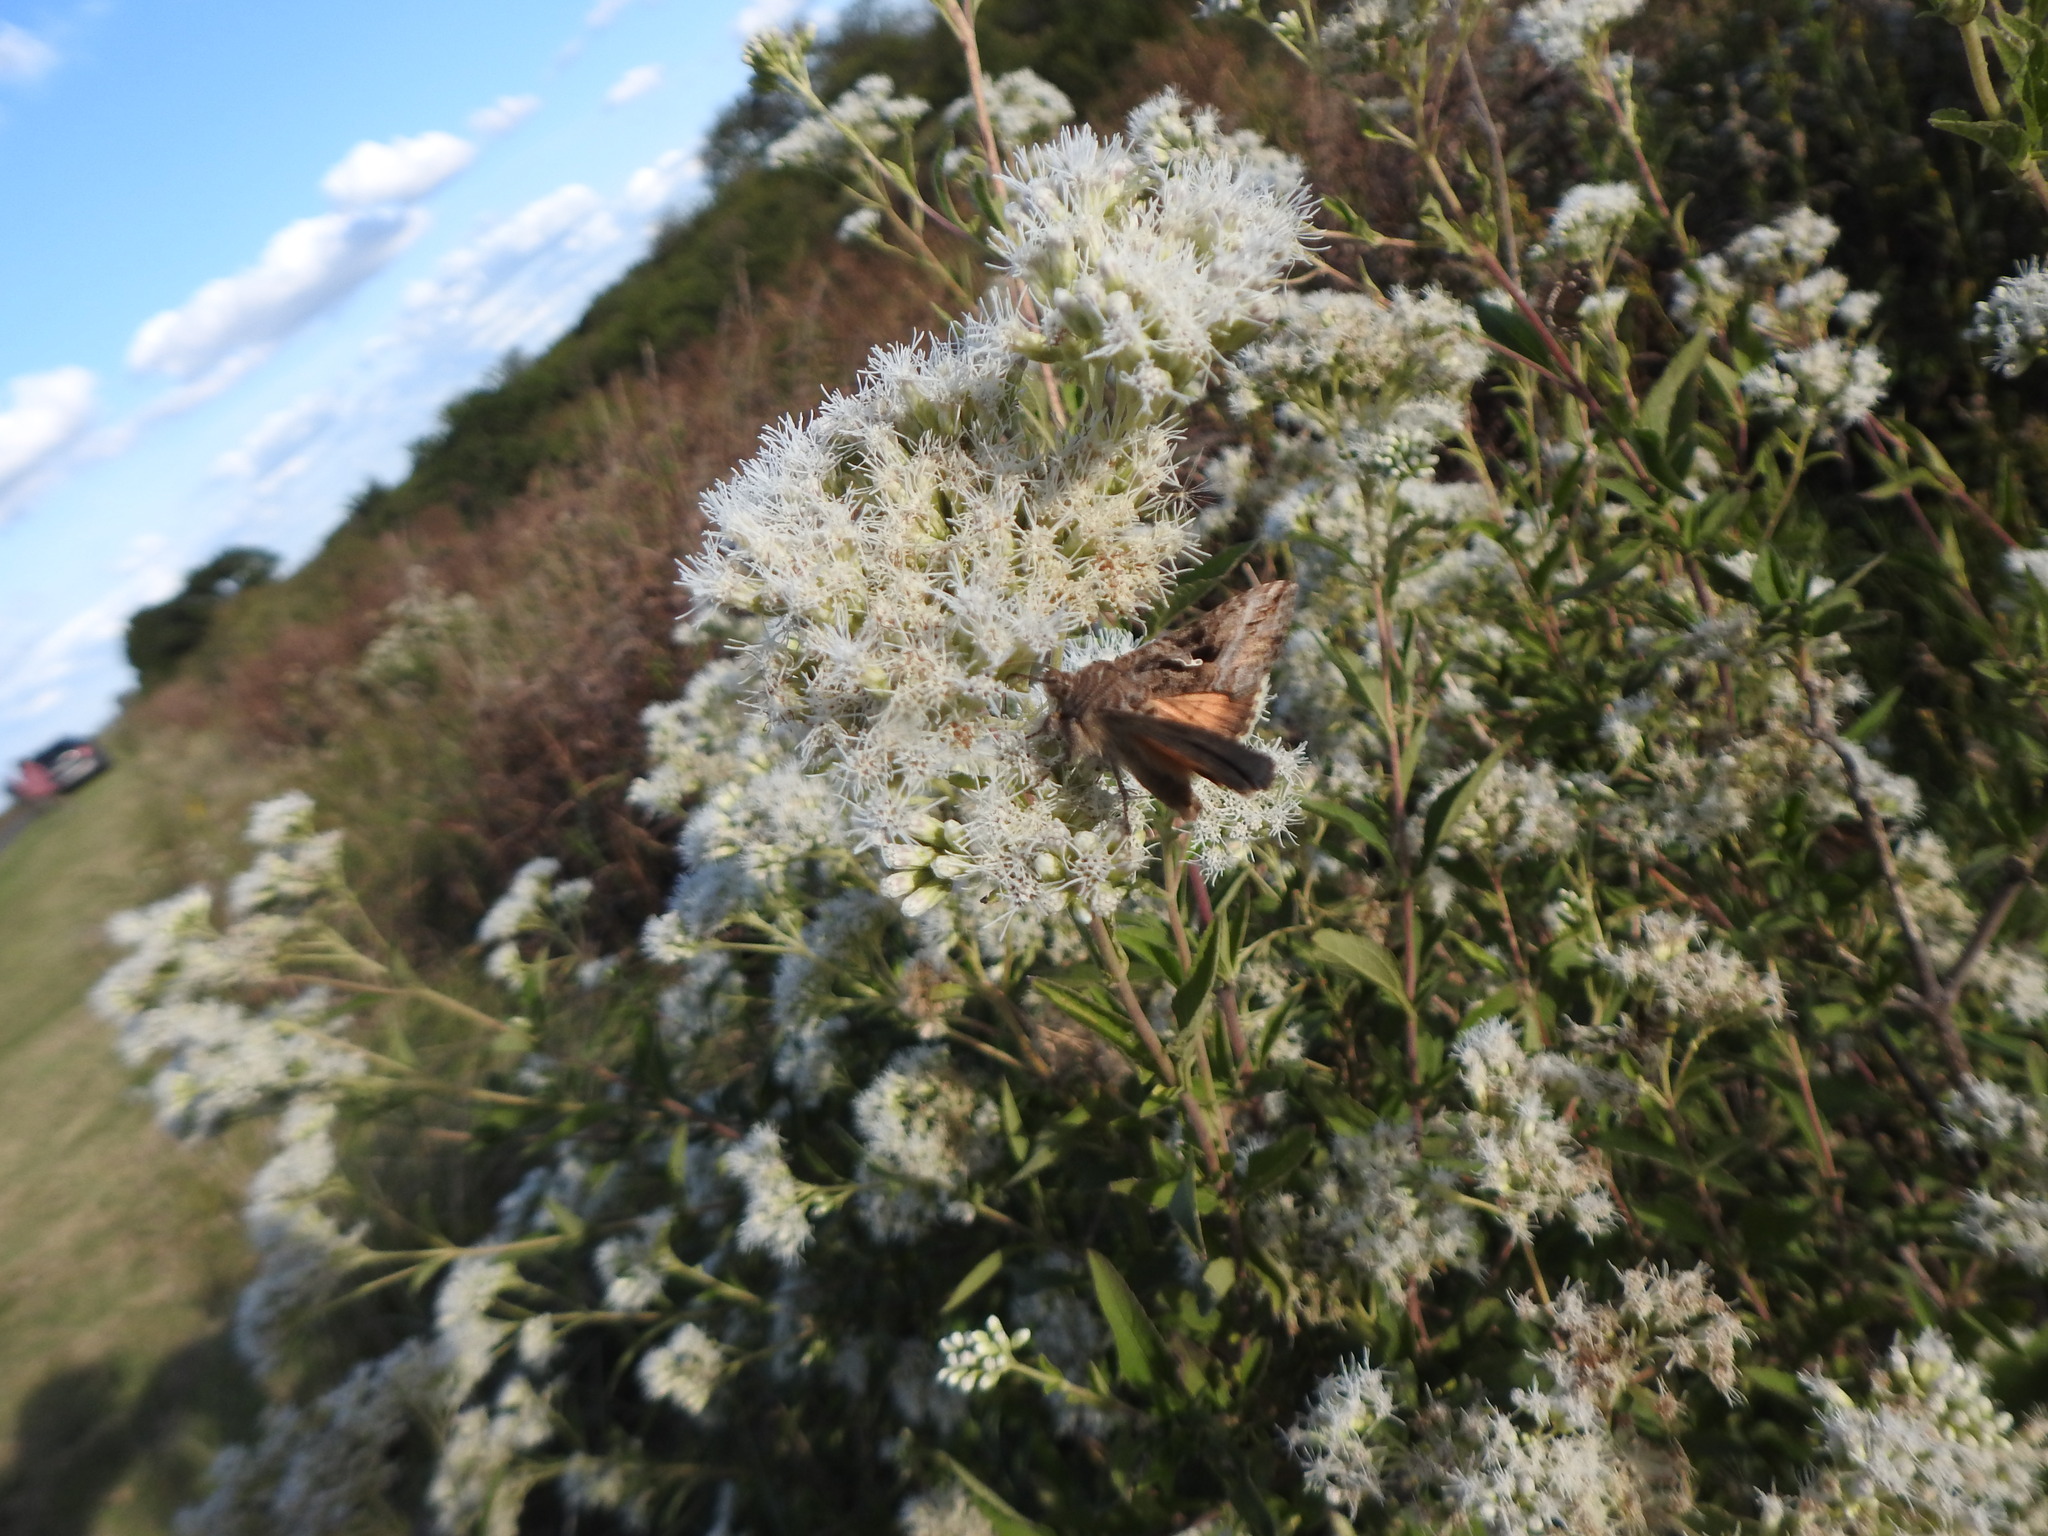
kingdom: Animalia
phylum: Arthropoda
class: Insecta
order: Lepidoptera
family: Noctuidae
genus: Rachiplusia
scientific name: Rachiplusia nu
